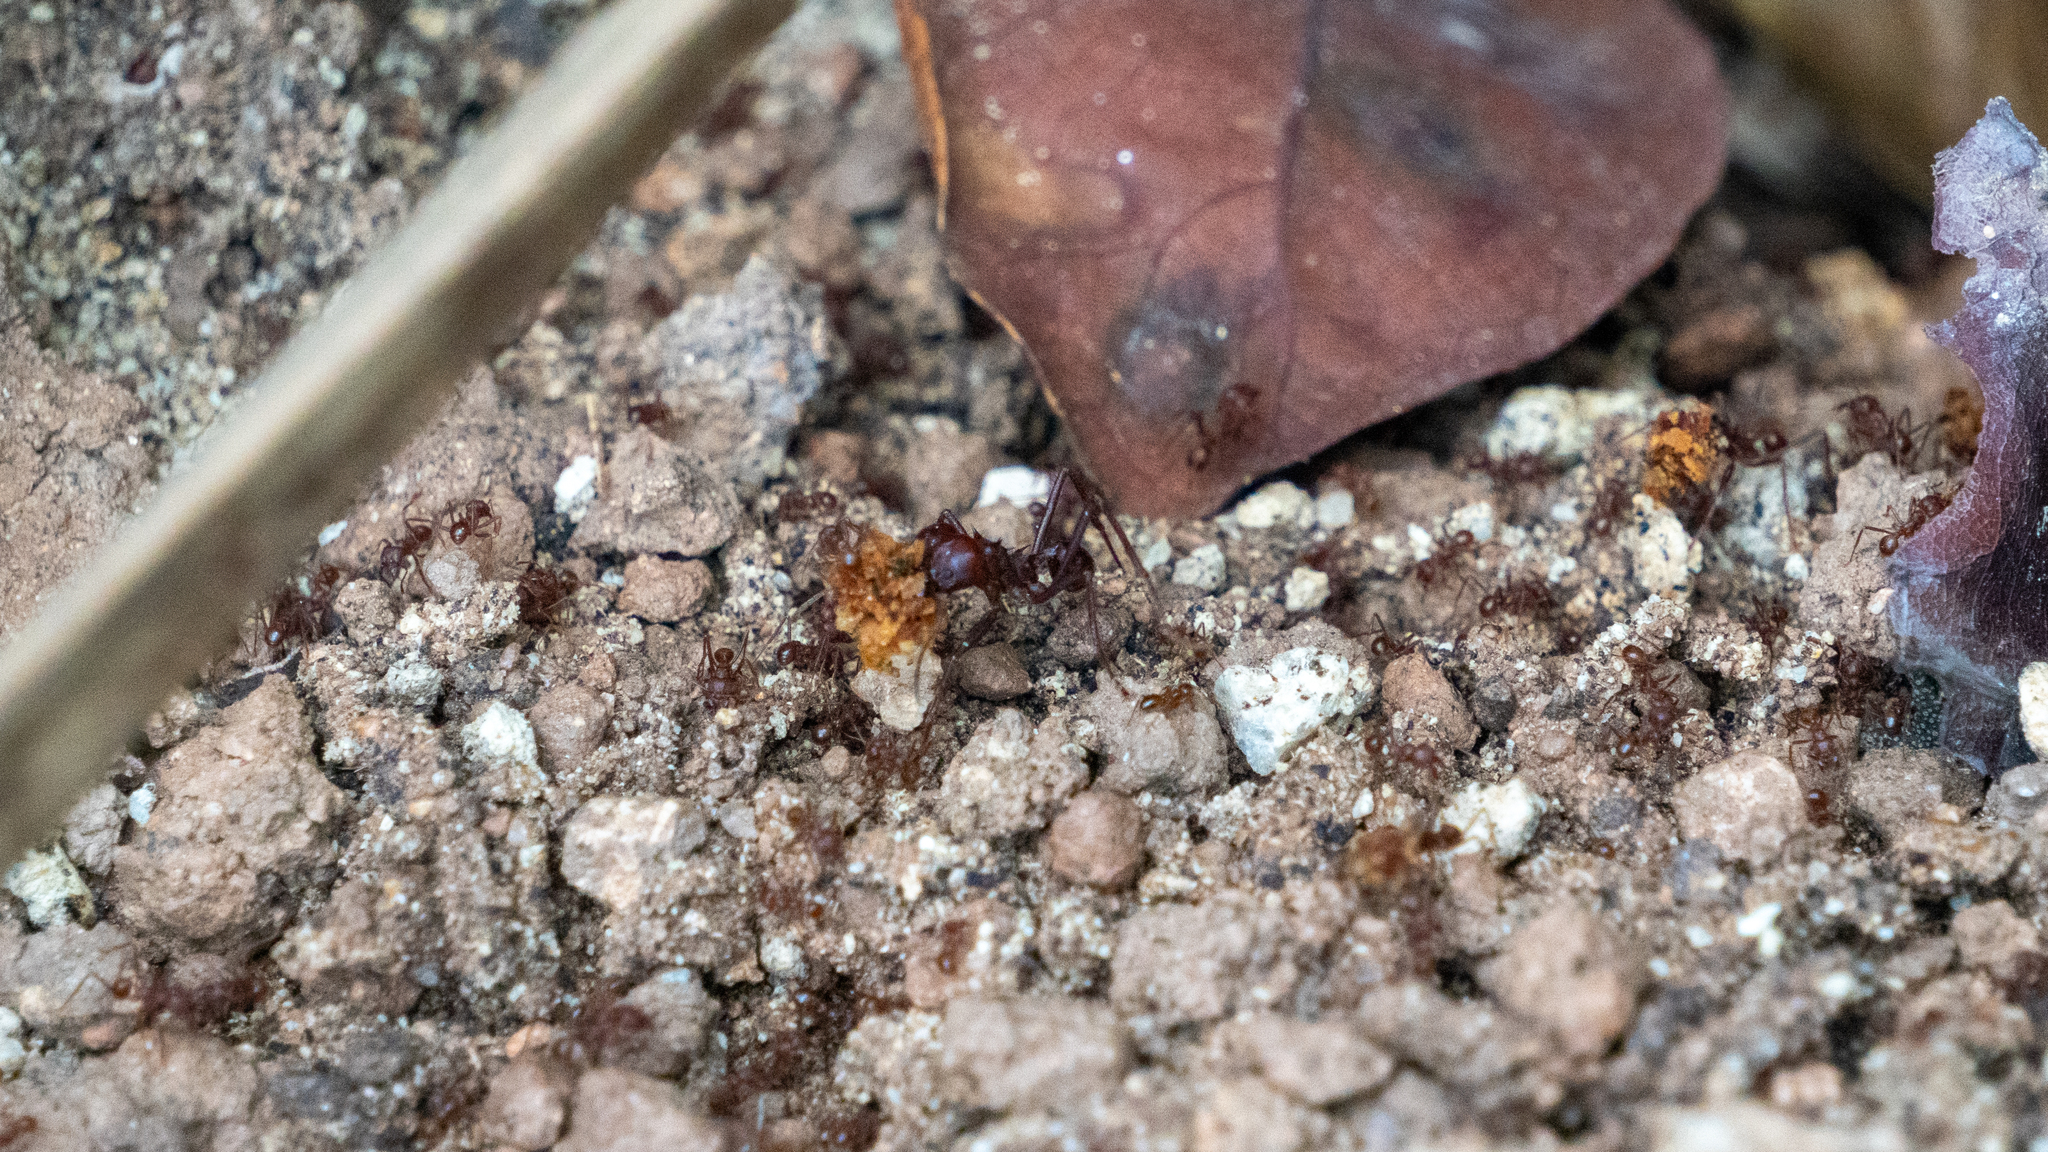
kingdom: Animalia
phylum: Arthropoda
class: Insecta
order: Hymenoptera
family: Formicidae
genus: Atta
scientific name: Atta mexicana
